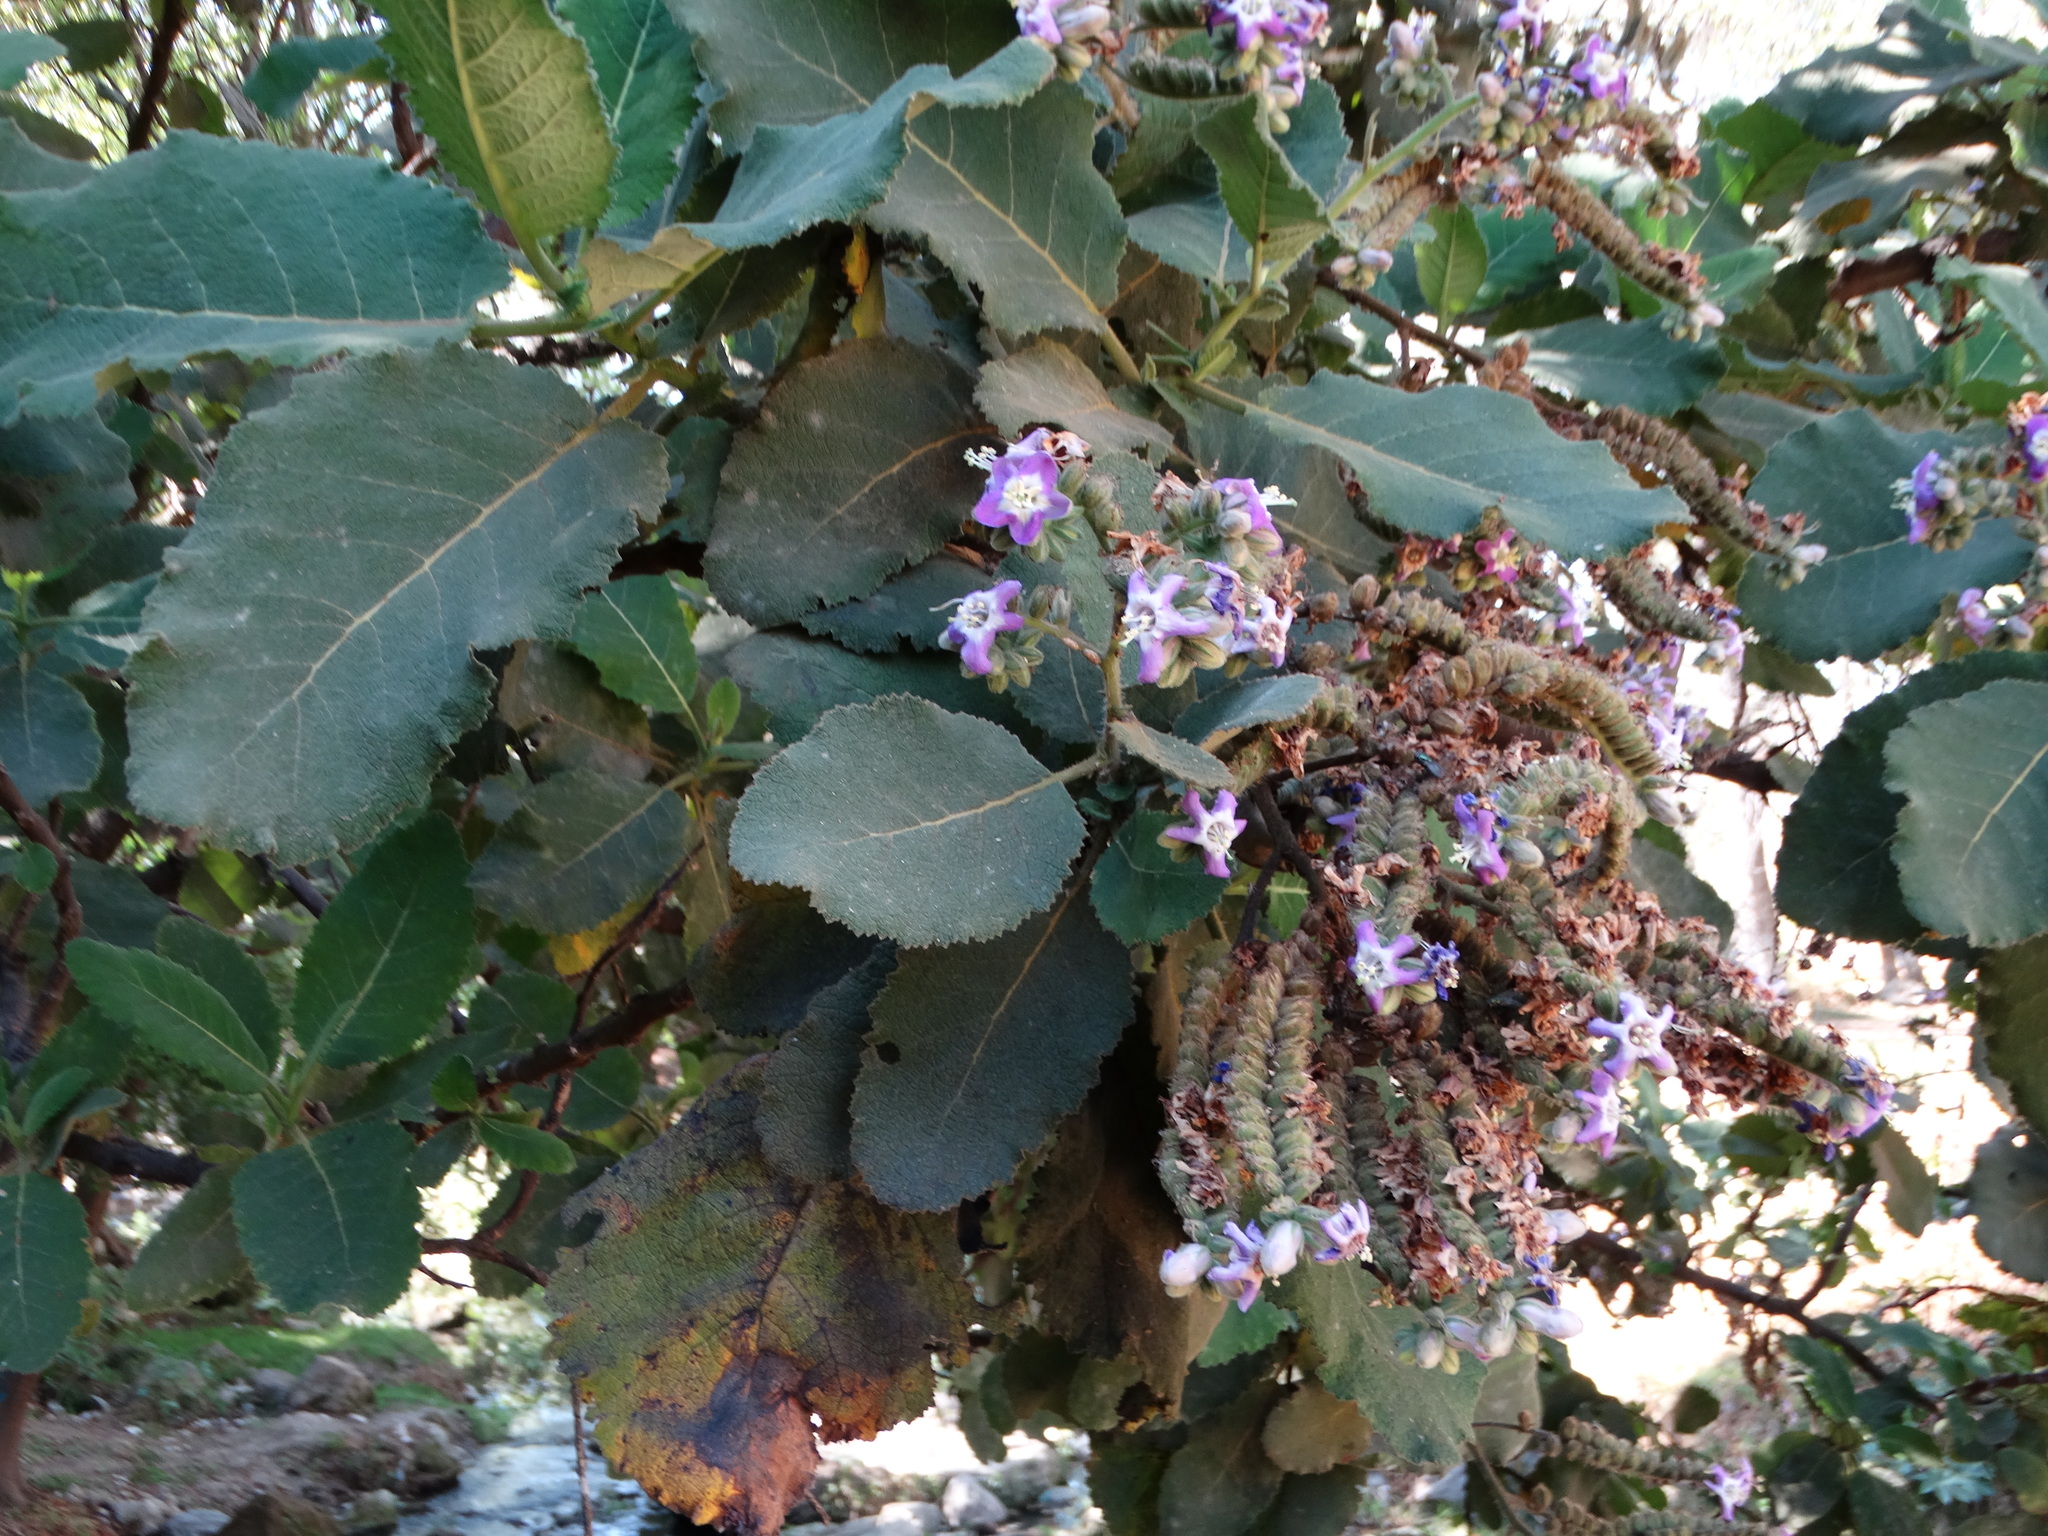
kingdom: Plantae
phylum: Tracheophyta
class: Magnoliopsida
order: Boraginales
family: Namaceae
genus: Wigandia
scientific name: Wigandia urens
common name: Caracus wigandia
